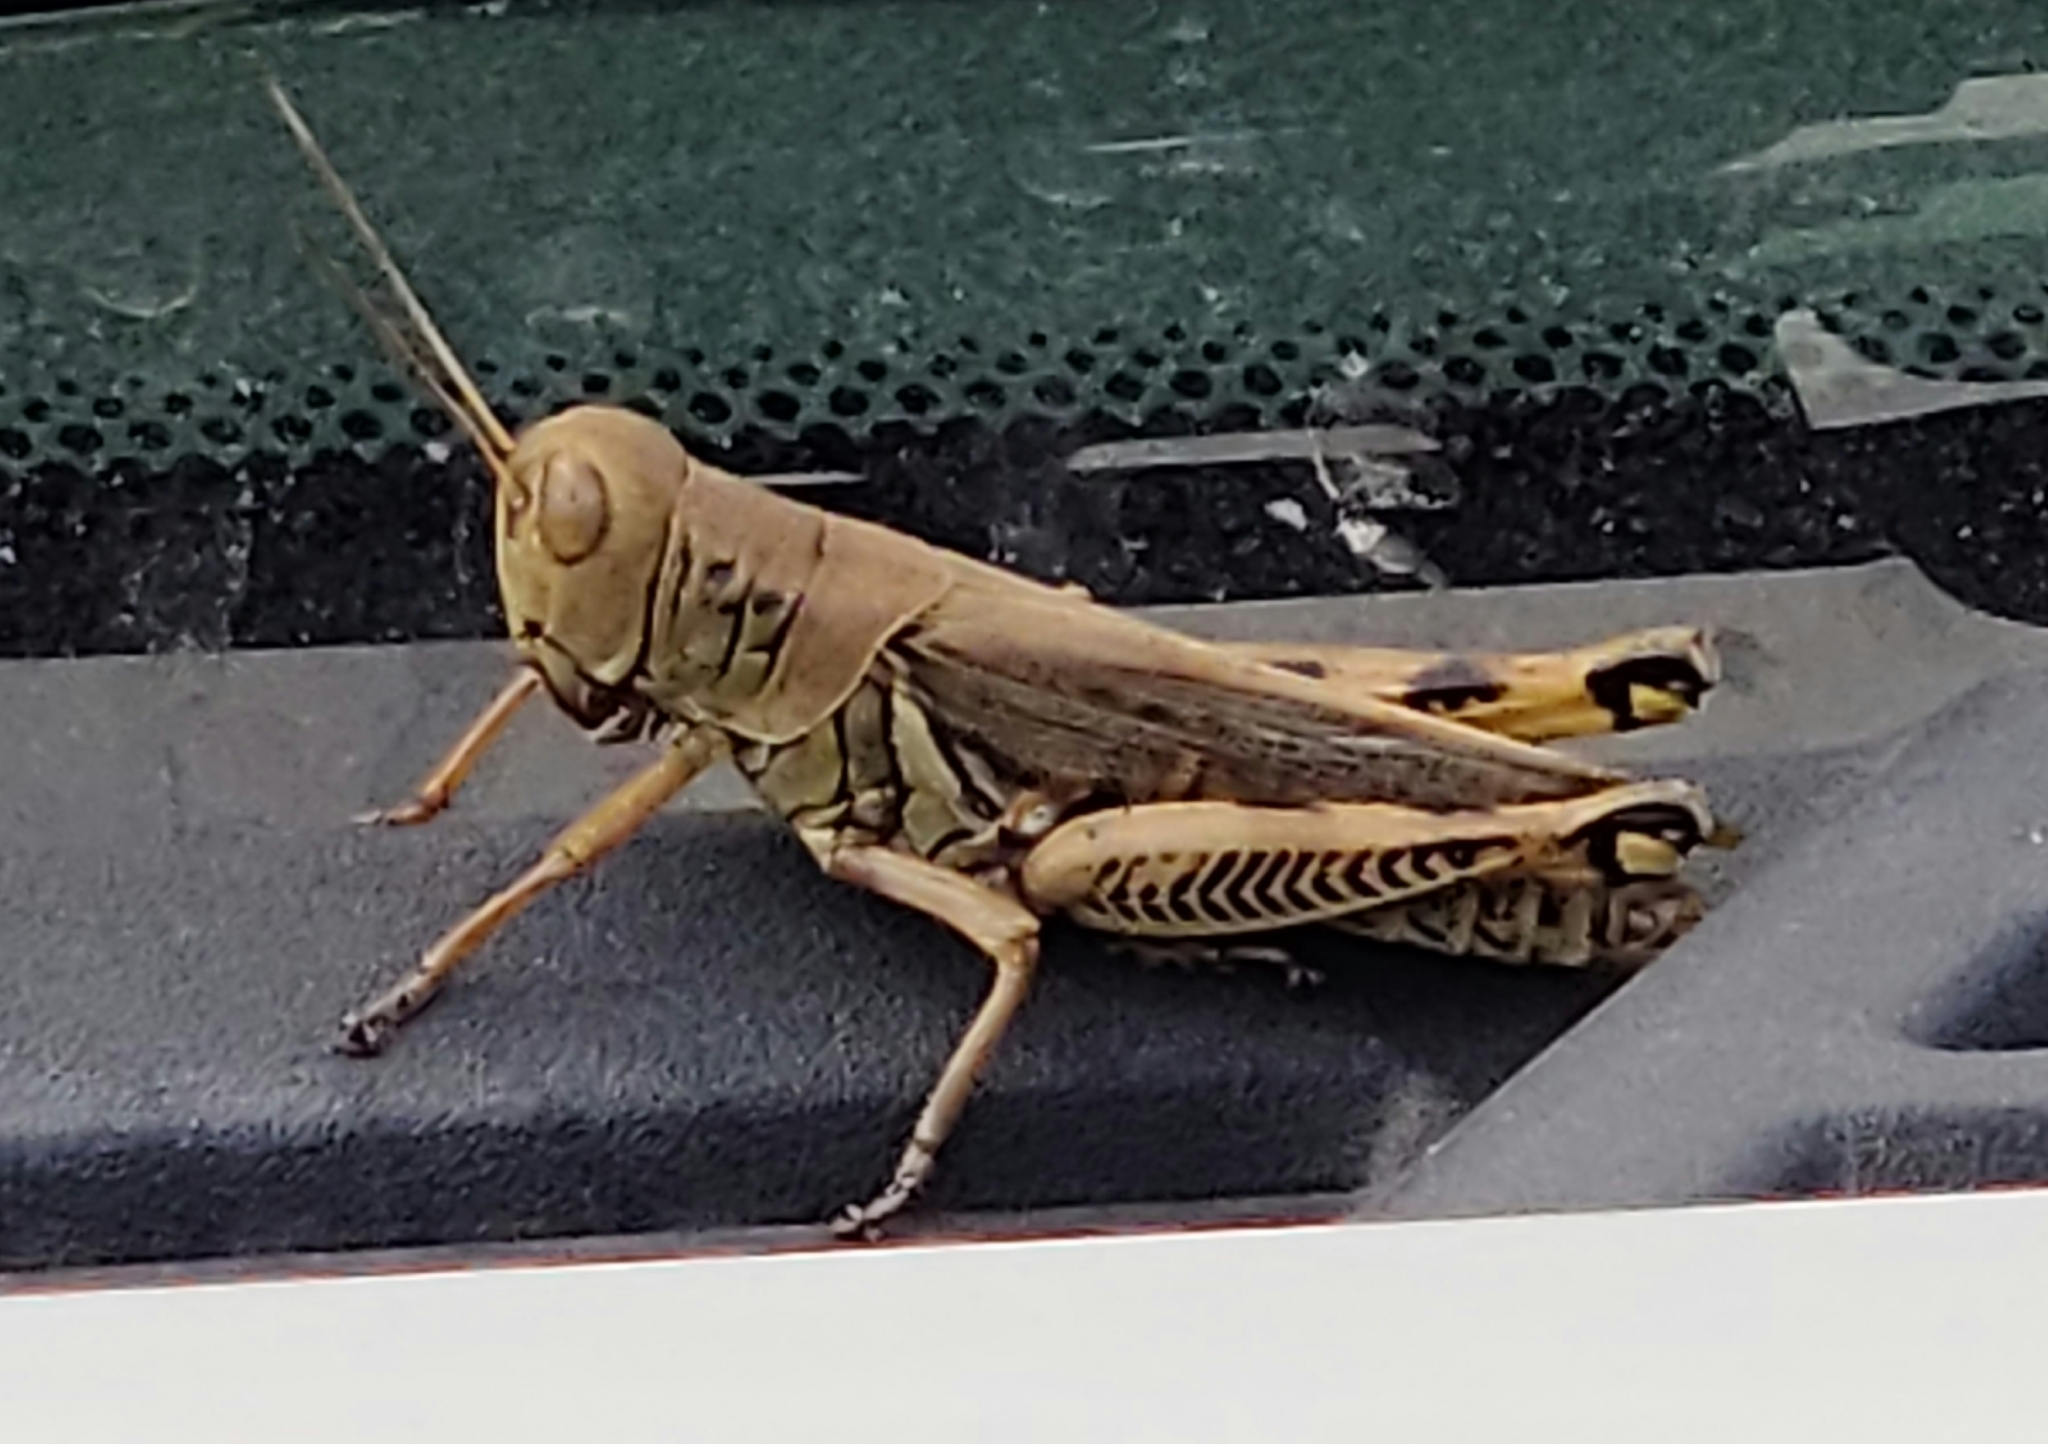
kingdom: Animalia
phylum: Arthropoda
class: Insecta
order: Orthoptera
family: Acrididae
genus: Melanoplus
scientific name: Melanoplus differentialis
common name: Differential grasshopper
